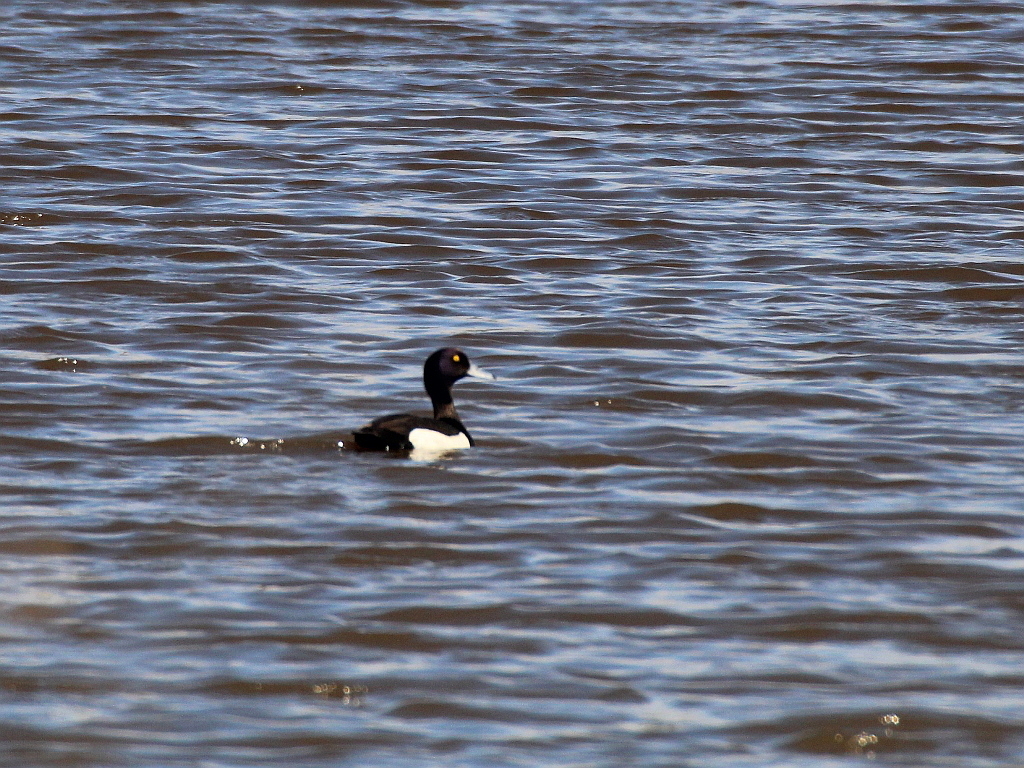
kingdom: Animalia
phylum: Chordata
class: Aves
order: Anseriformes
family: Anatidae
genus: Aythya
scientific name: Aythya fuligula
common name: Tufted duck
